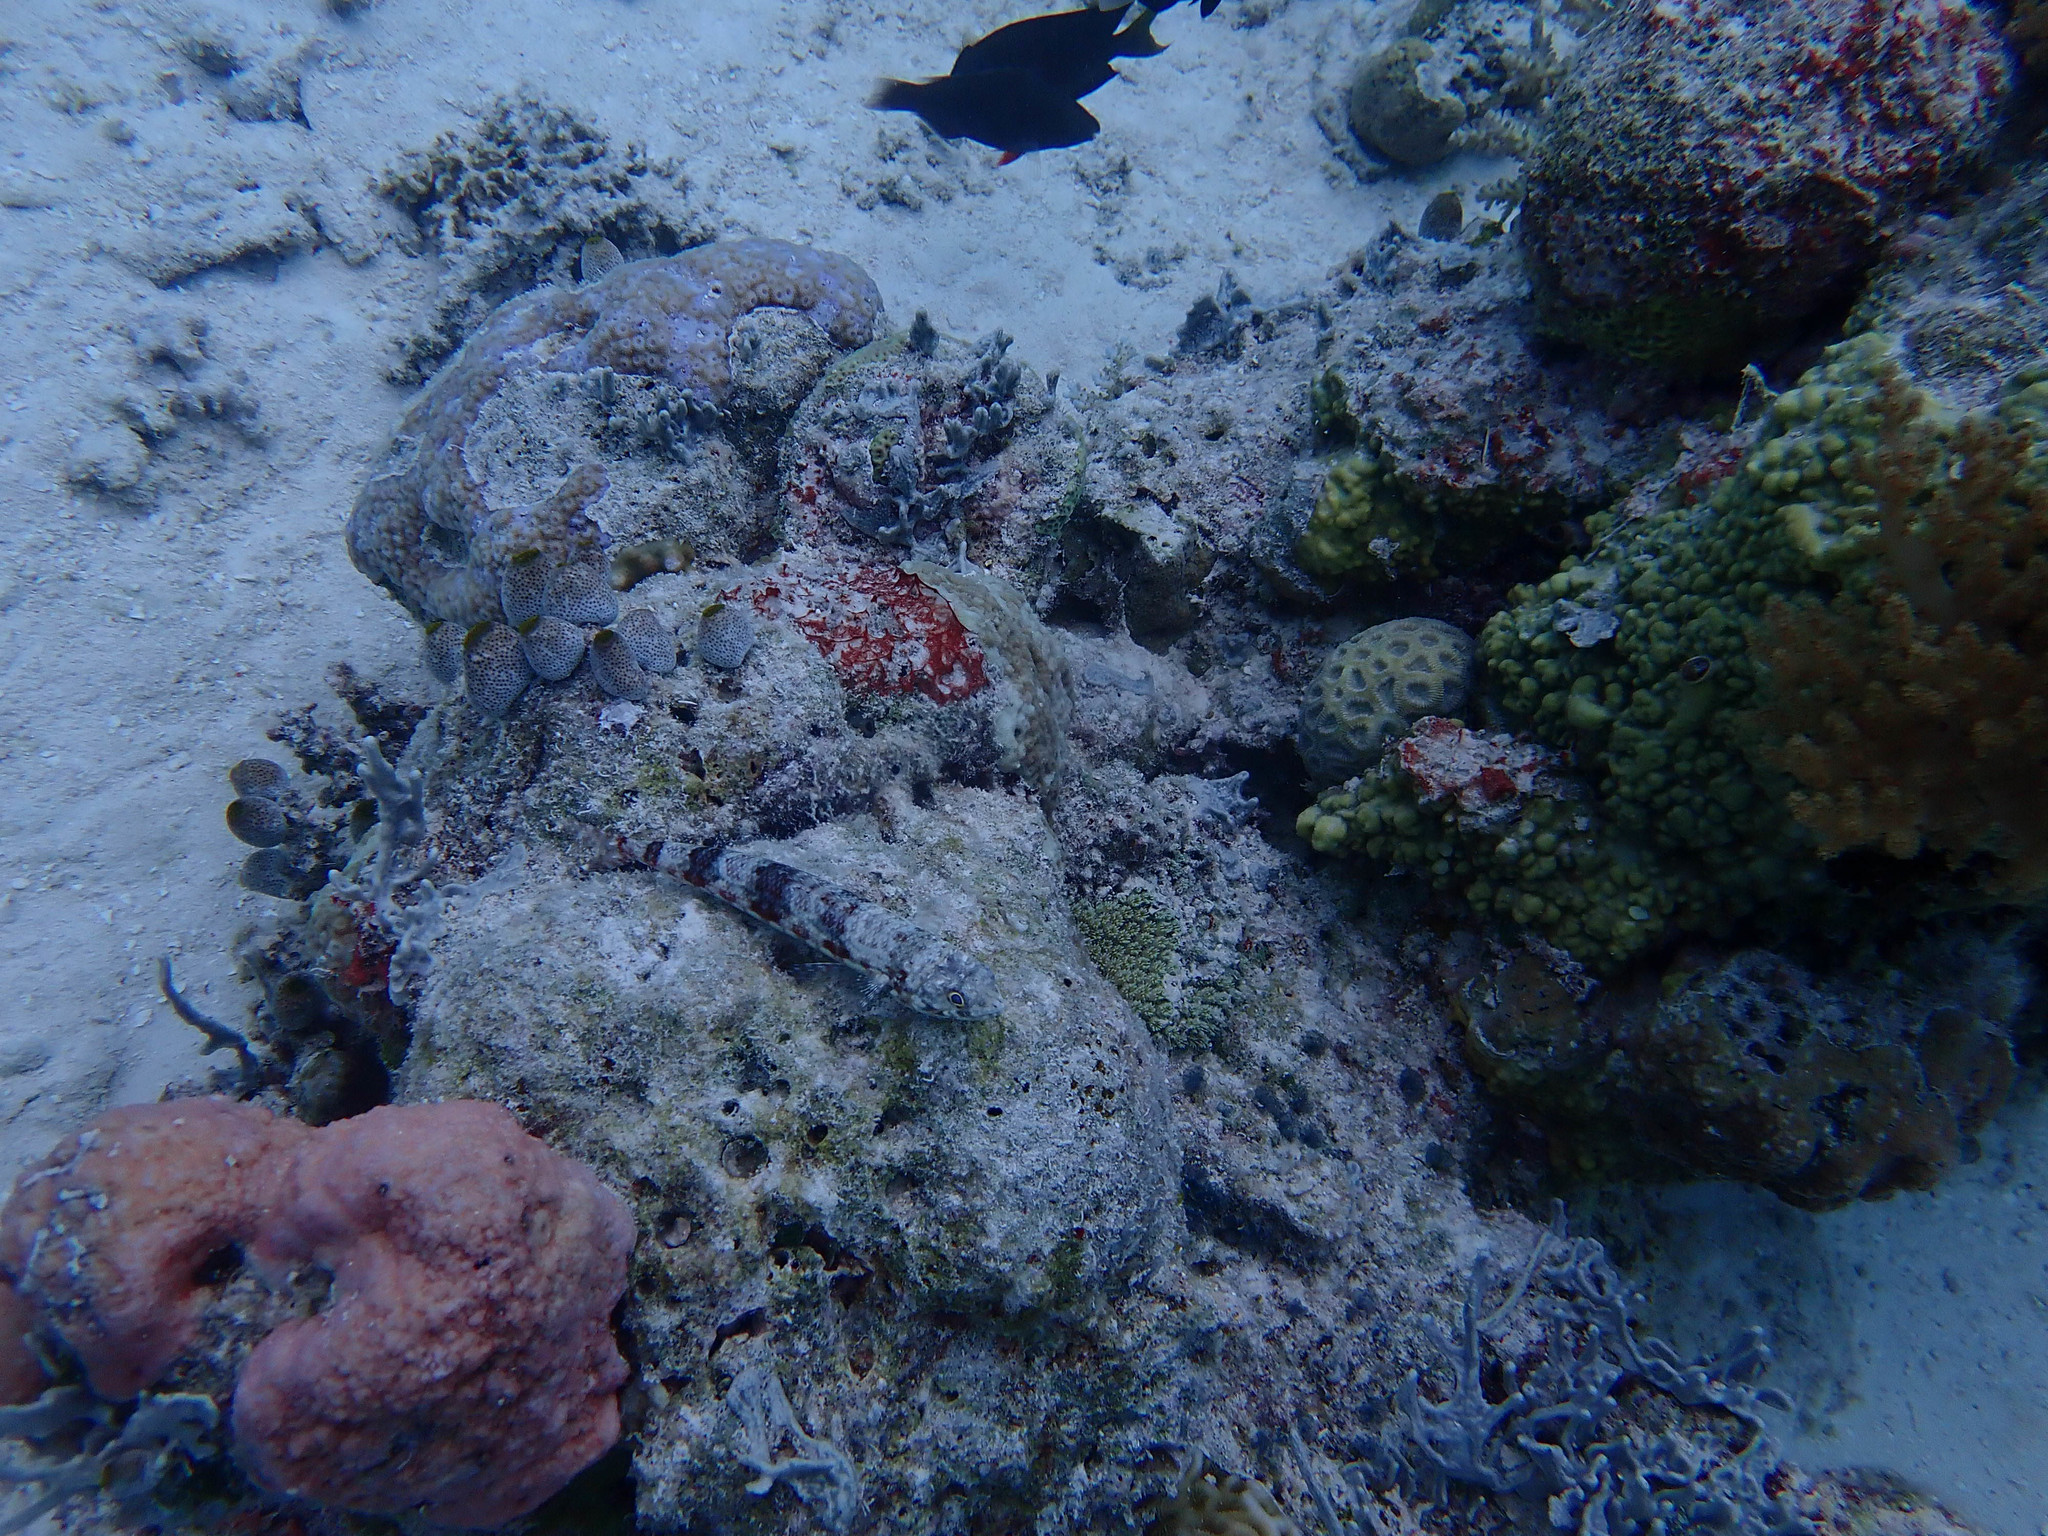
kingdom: Animalia
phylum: Chordata
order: Aulopiformes
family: Synodontidae
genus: Synodus
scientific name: Synodus variegatus
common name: Variegated lizardfish
